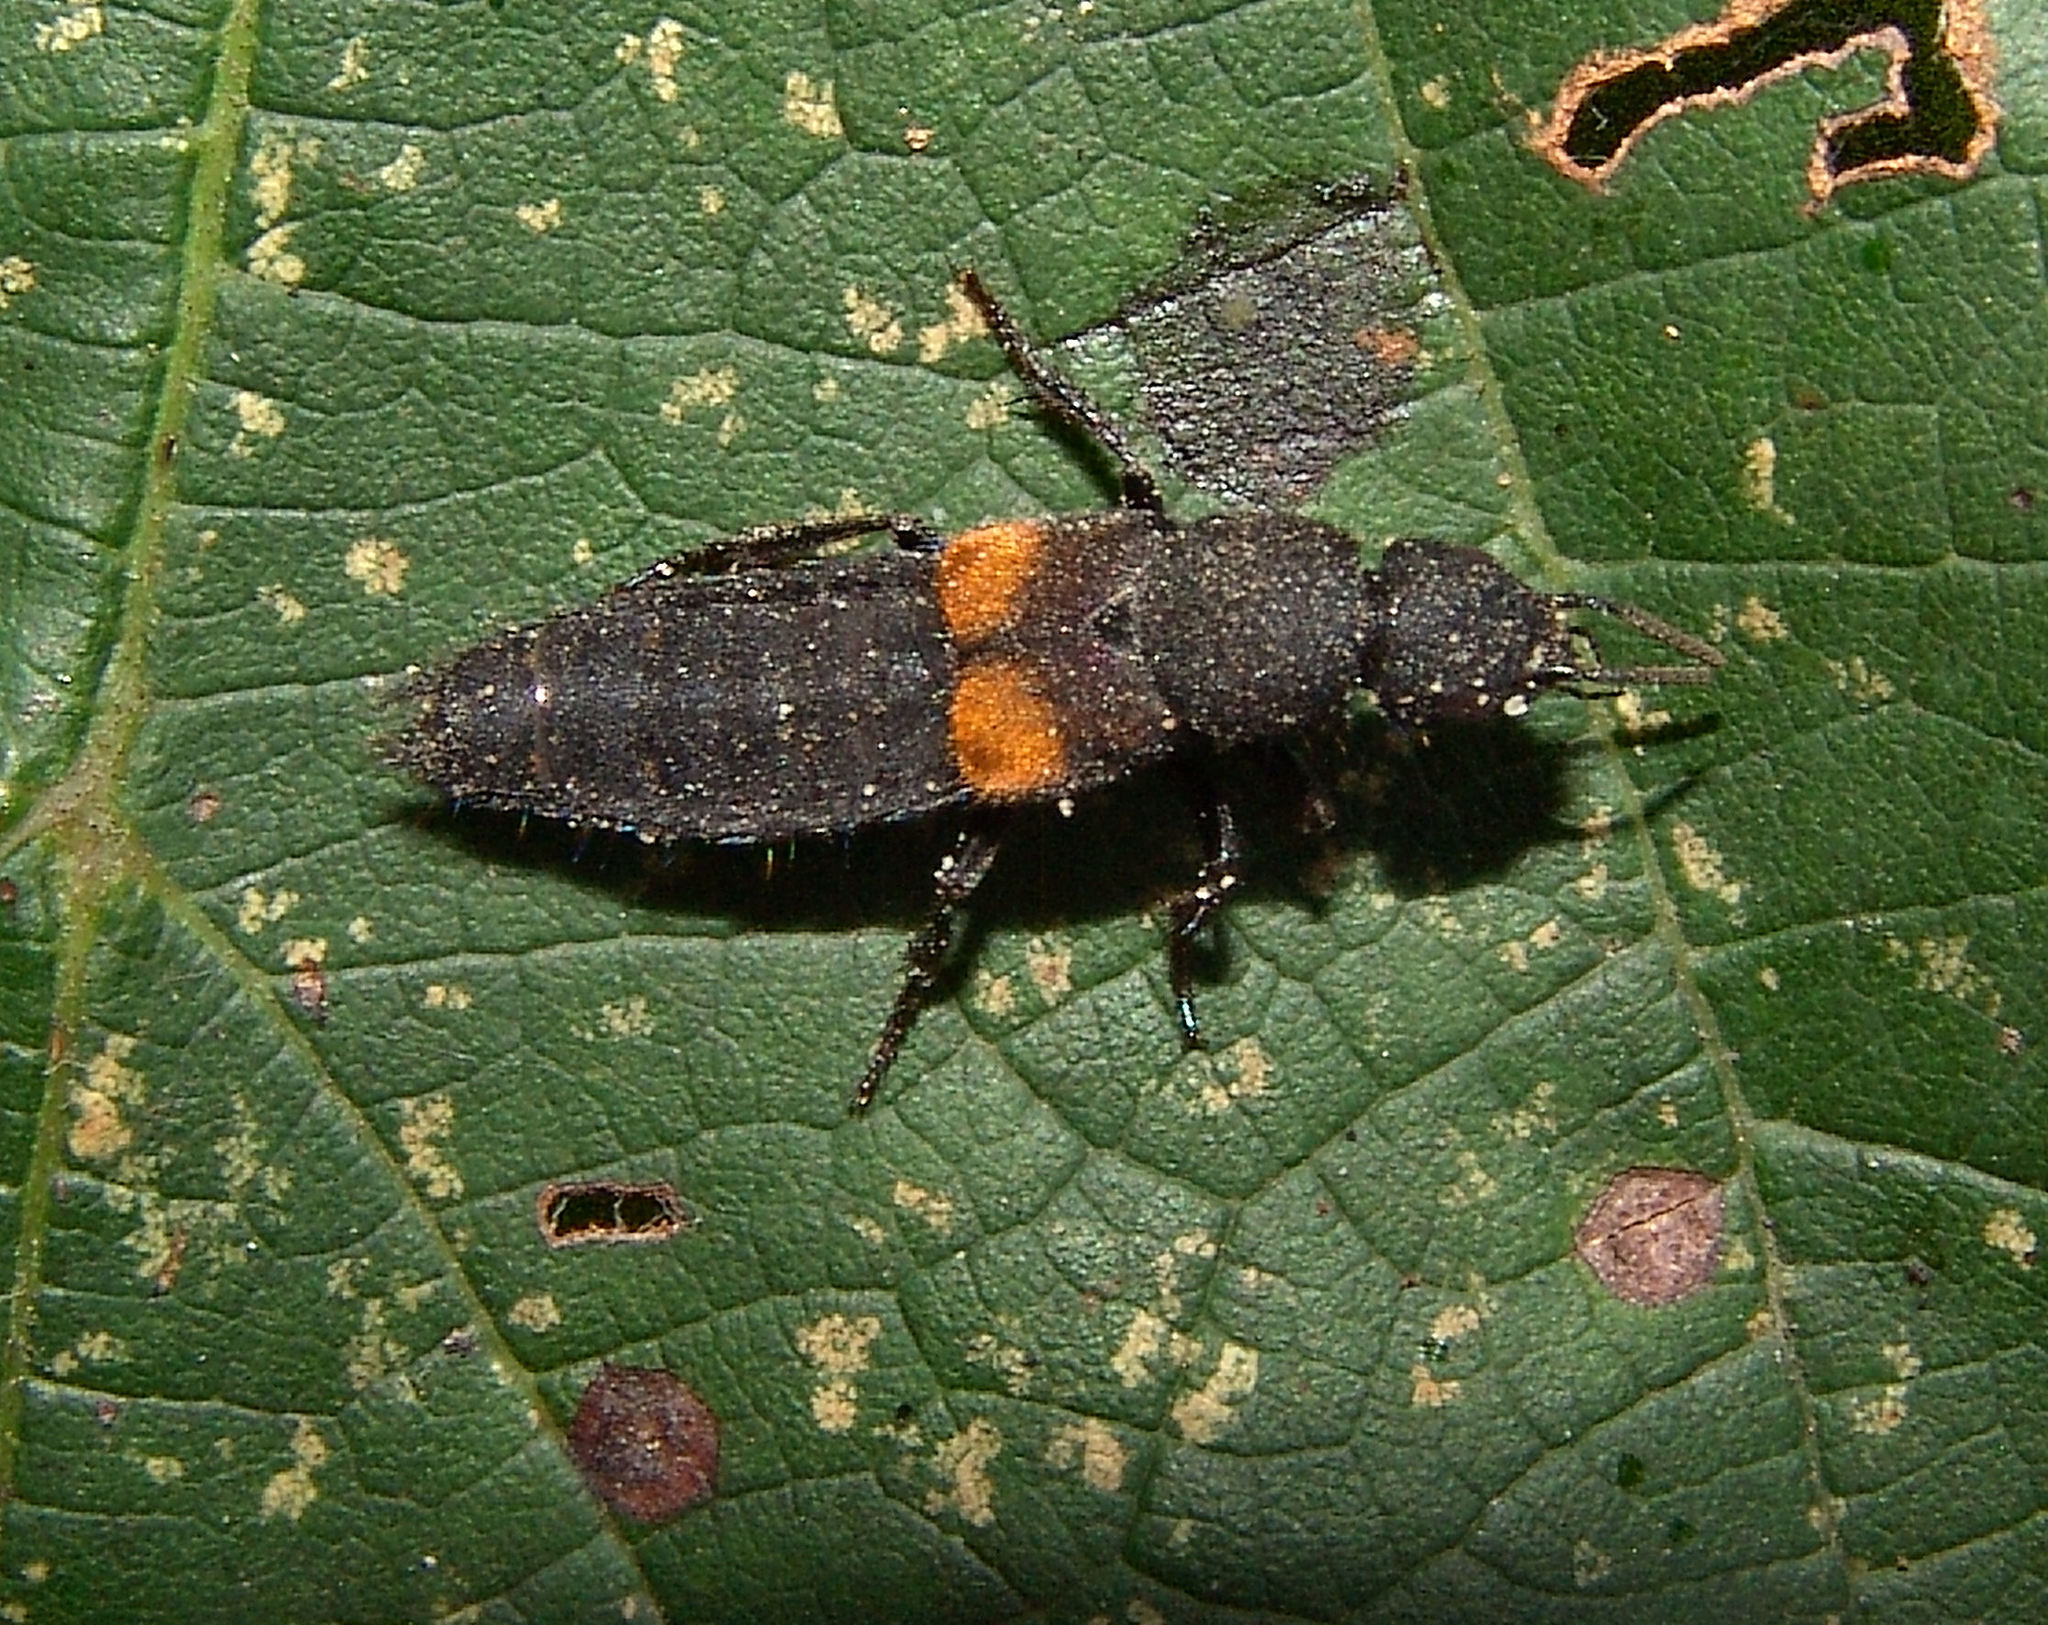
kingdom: Animalia
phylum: Arthropoda
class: Insecta
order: Coleoptera
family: Staphylinidae
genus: Platydracus
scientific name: Platydracus fossator
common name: Red-spotted rove beetle
